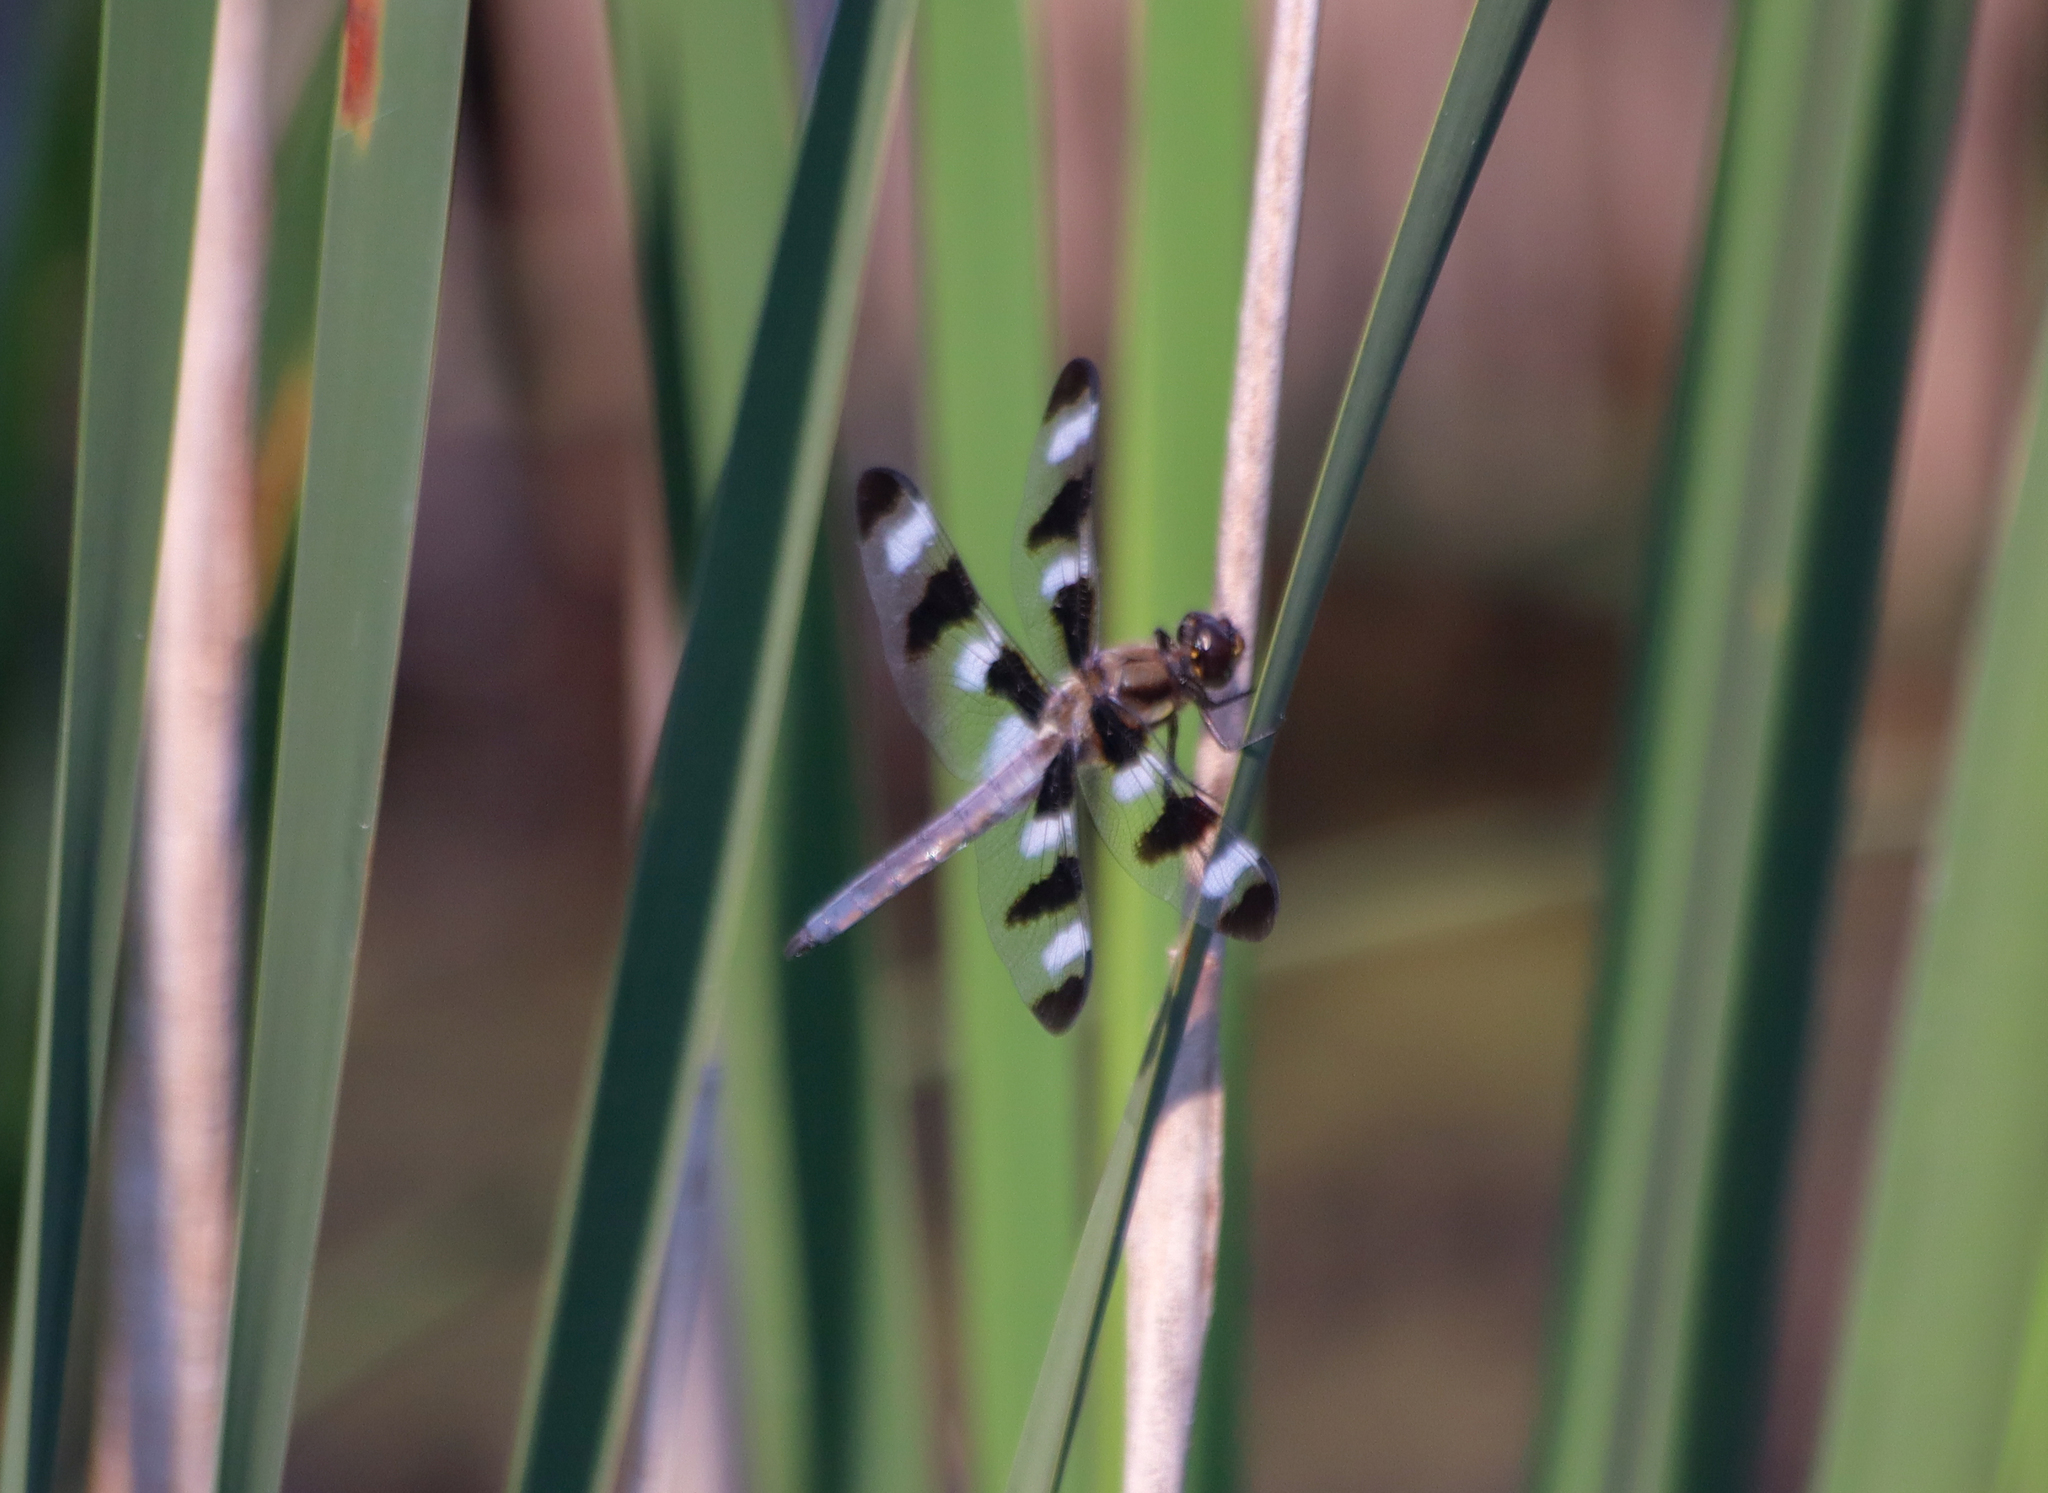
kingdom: Animalia
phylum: Arthropoda
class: Insecta
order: Odonata
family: Libellulidae
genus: Libellula
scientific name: Libellula pulchella
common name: Twelve-spotted skimmer
